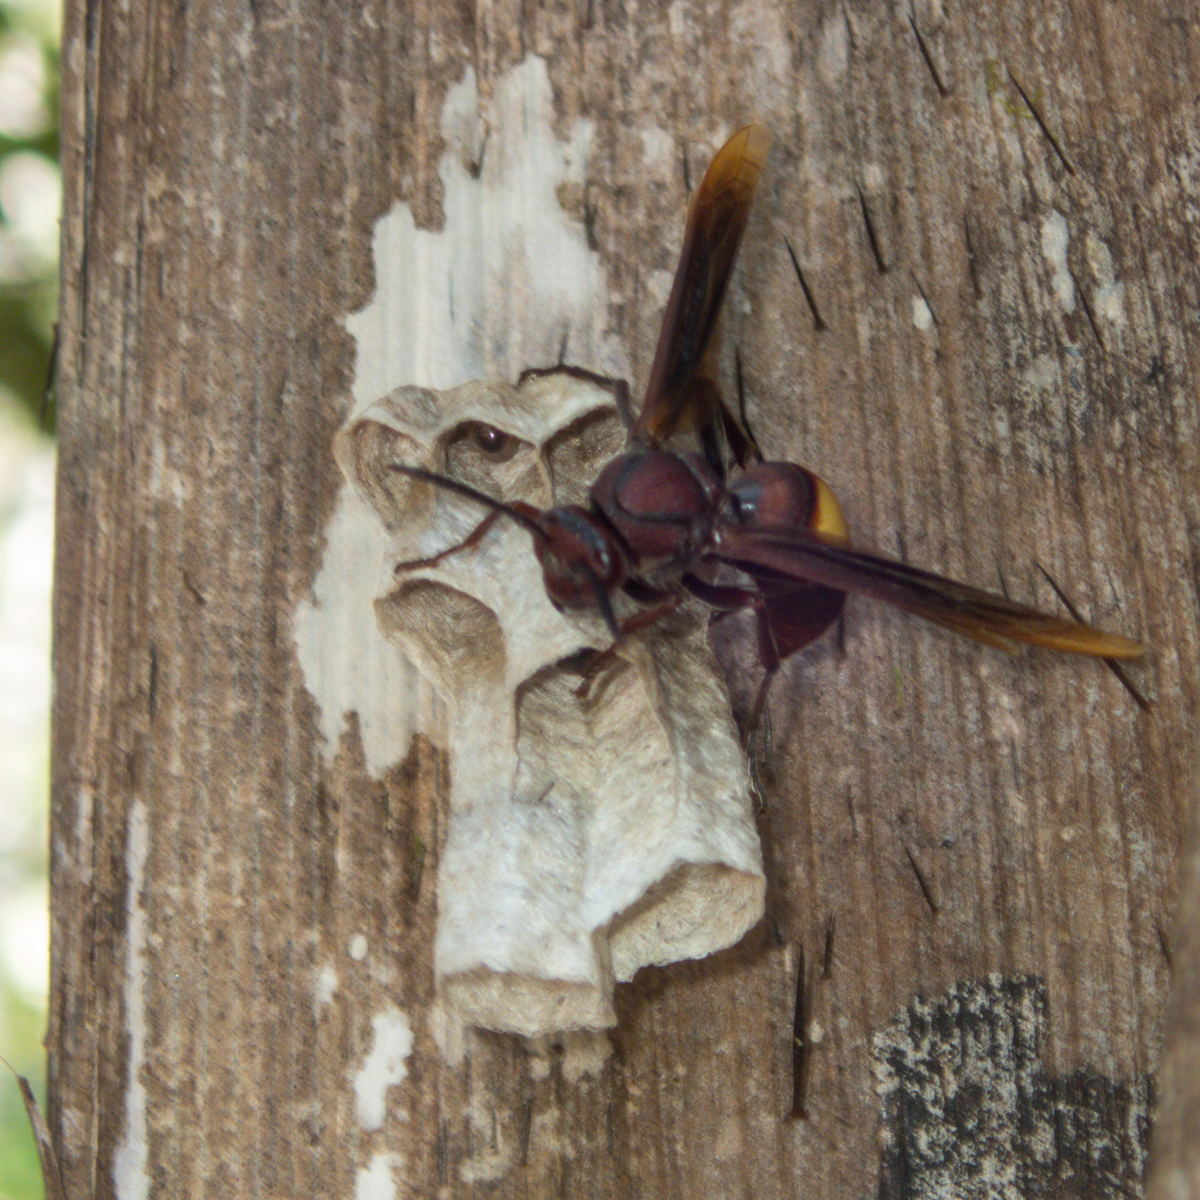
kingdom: Animalia
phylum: Arthropoda
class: Insecta
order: Hymenoptera
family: Eumenidae
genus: Polistes
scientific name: Polistes sagittarius
